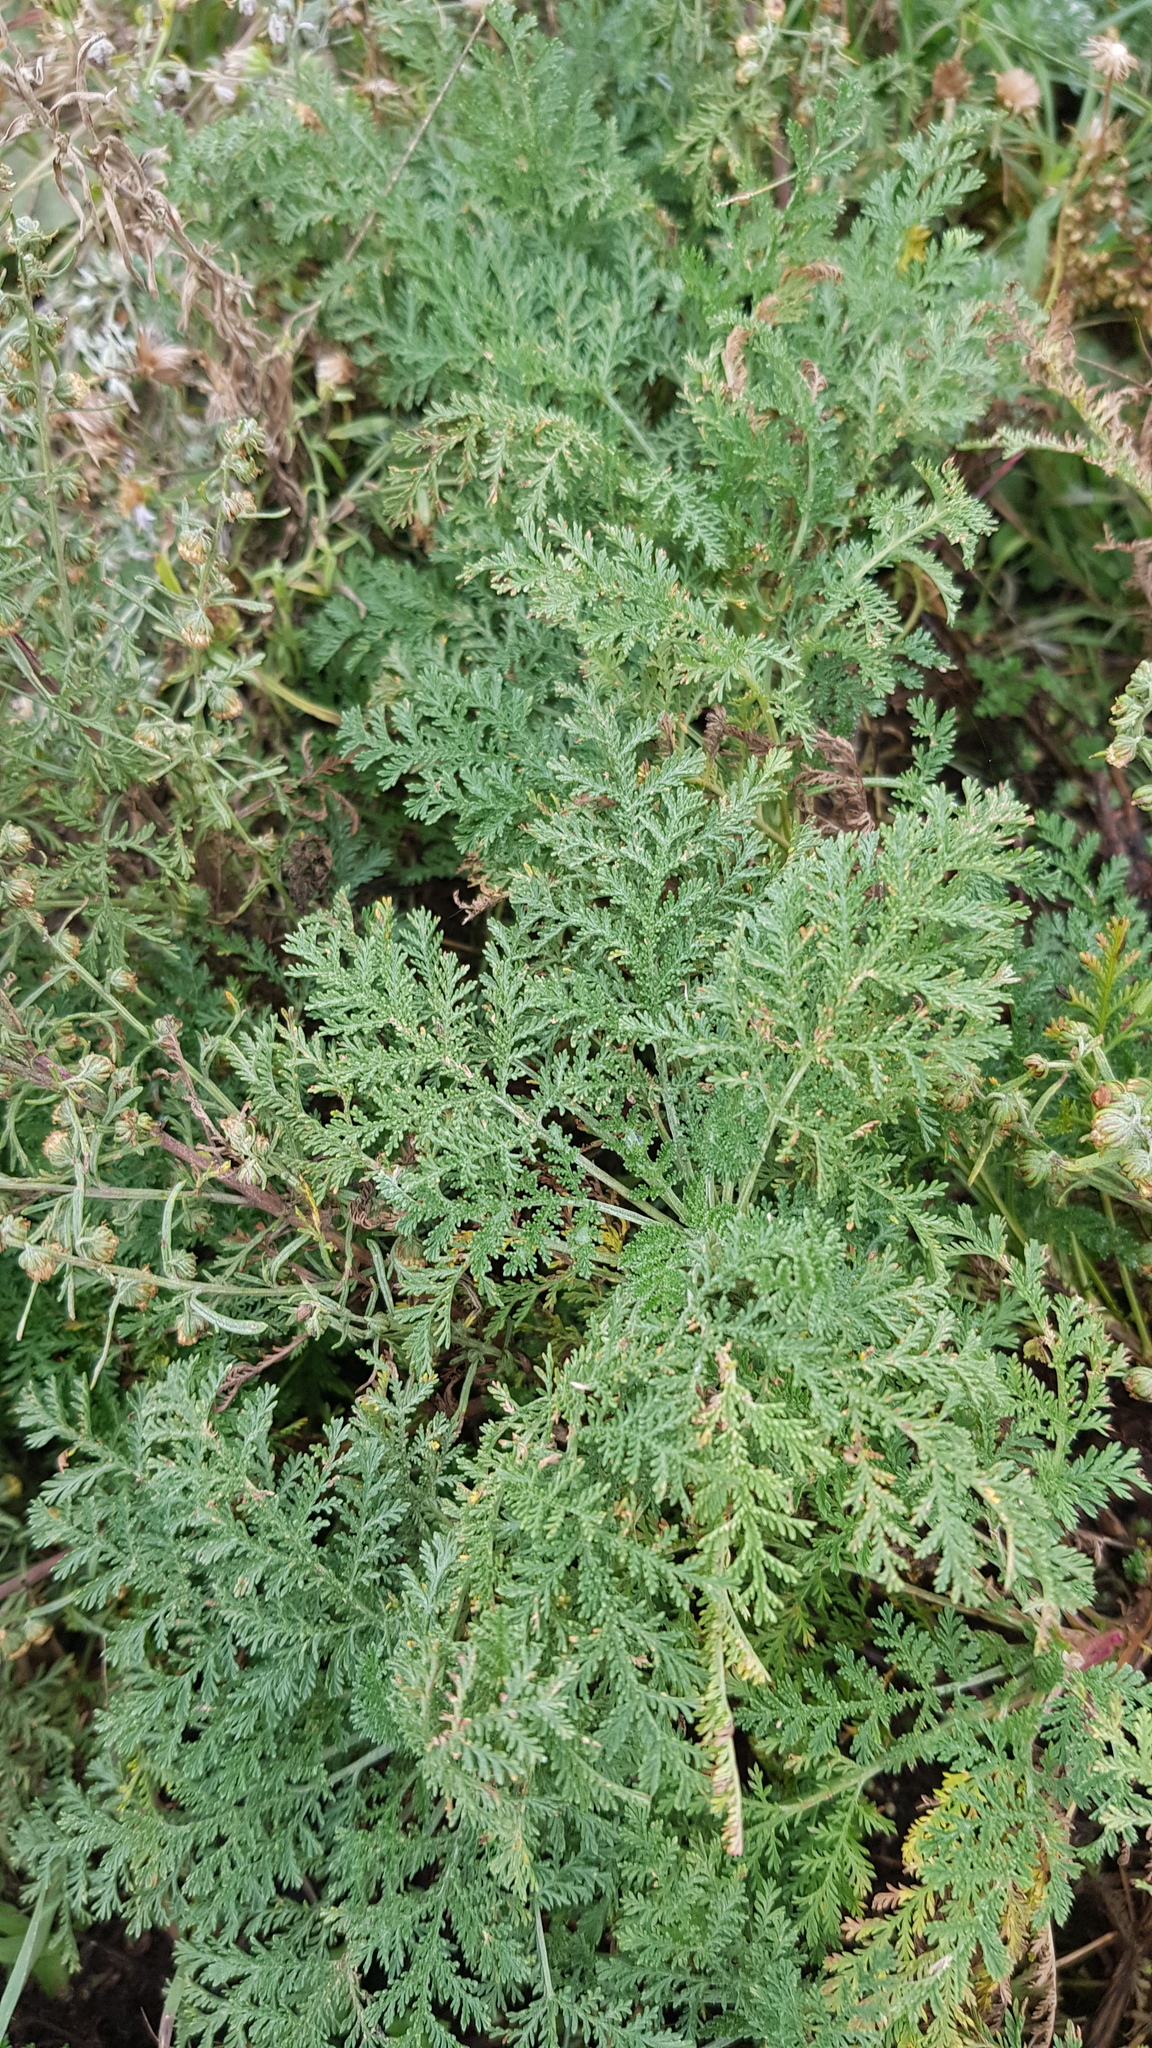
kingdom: Plantae
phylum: Tracheophyta
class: Magnoliopsida
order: Asterales
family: Asteraceae
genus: Artemisia
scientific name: Artemisia gmelinii
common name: Gmelin's wormwood
